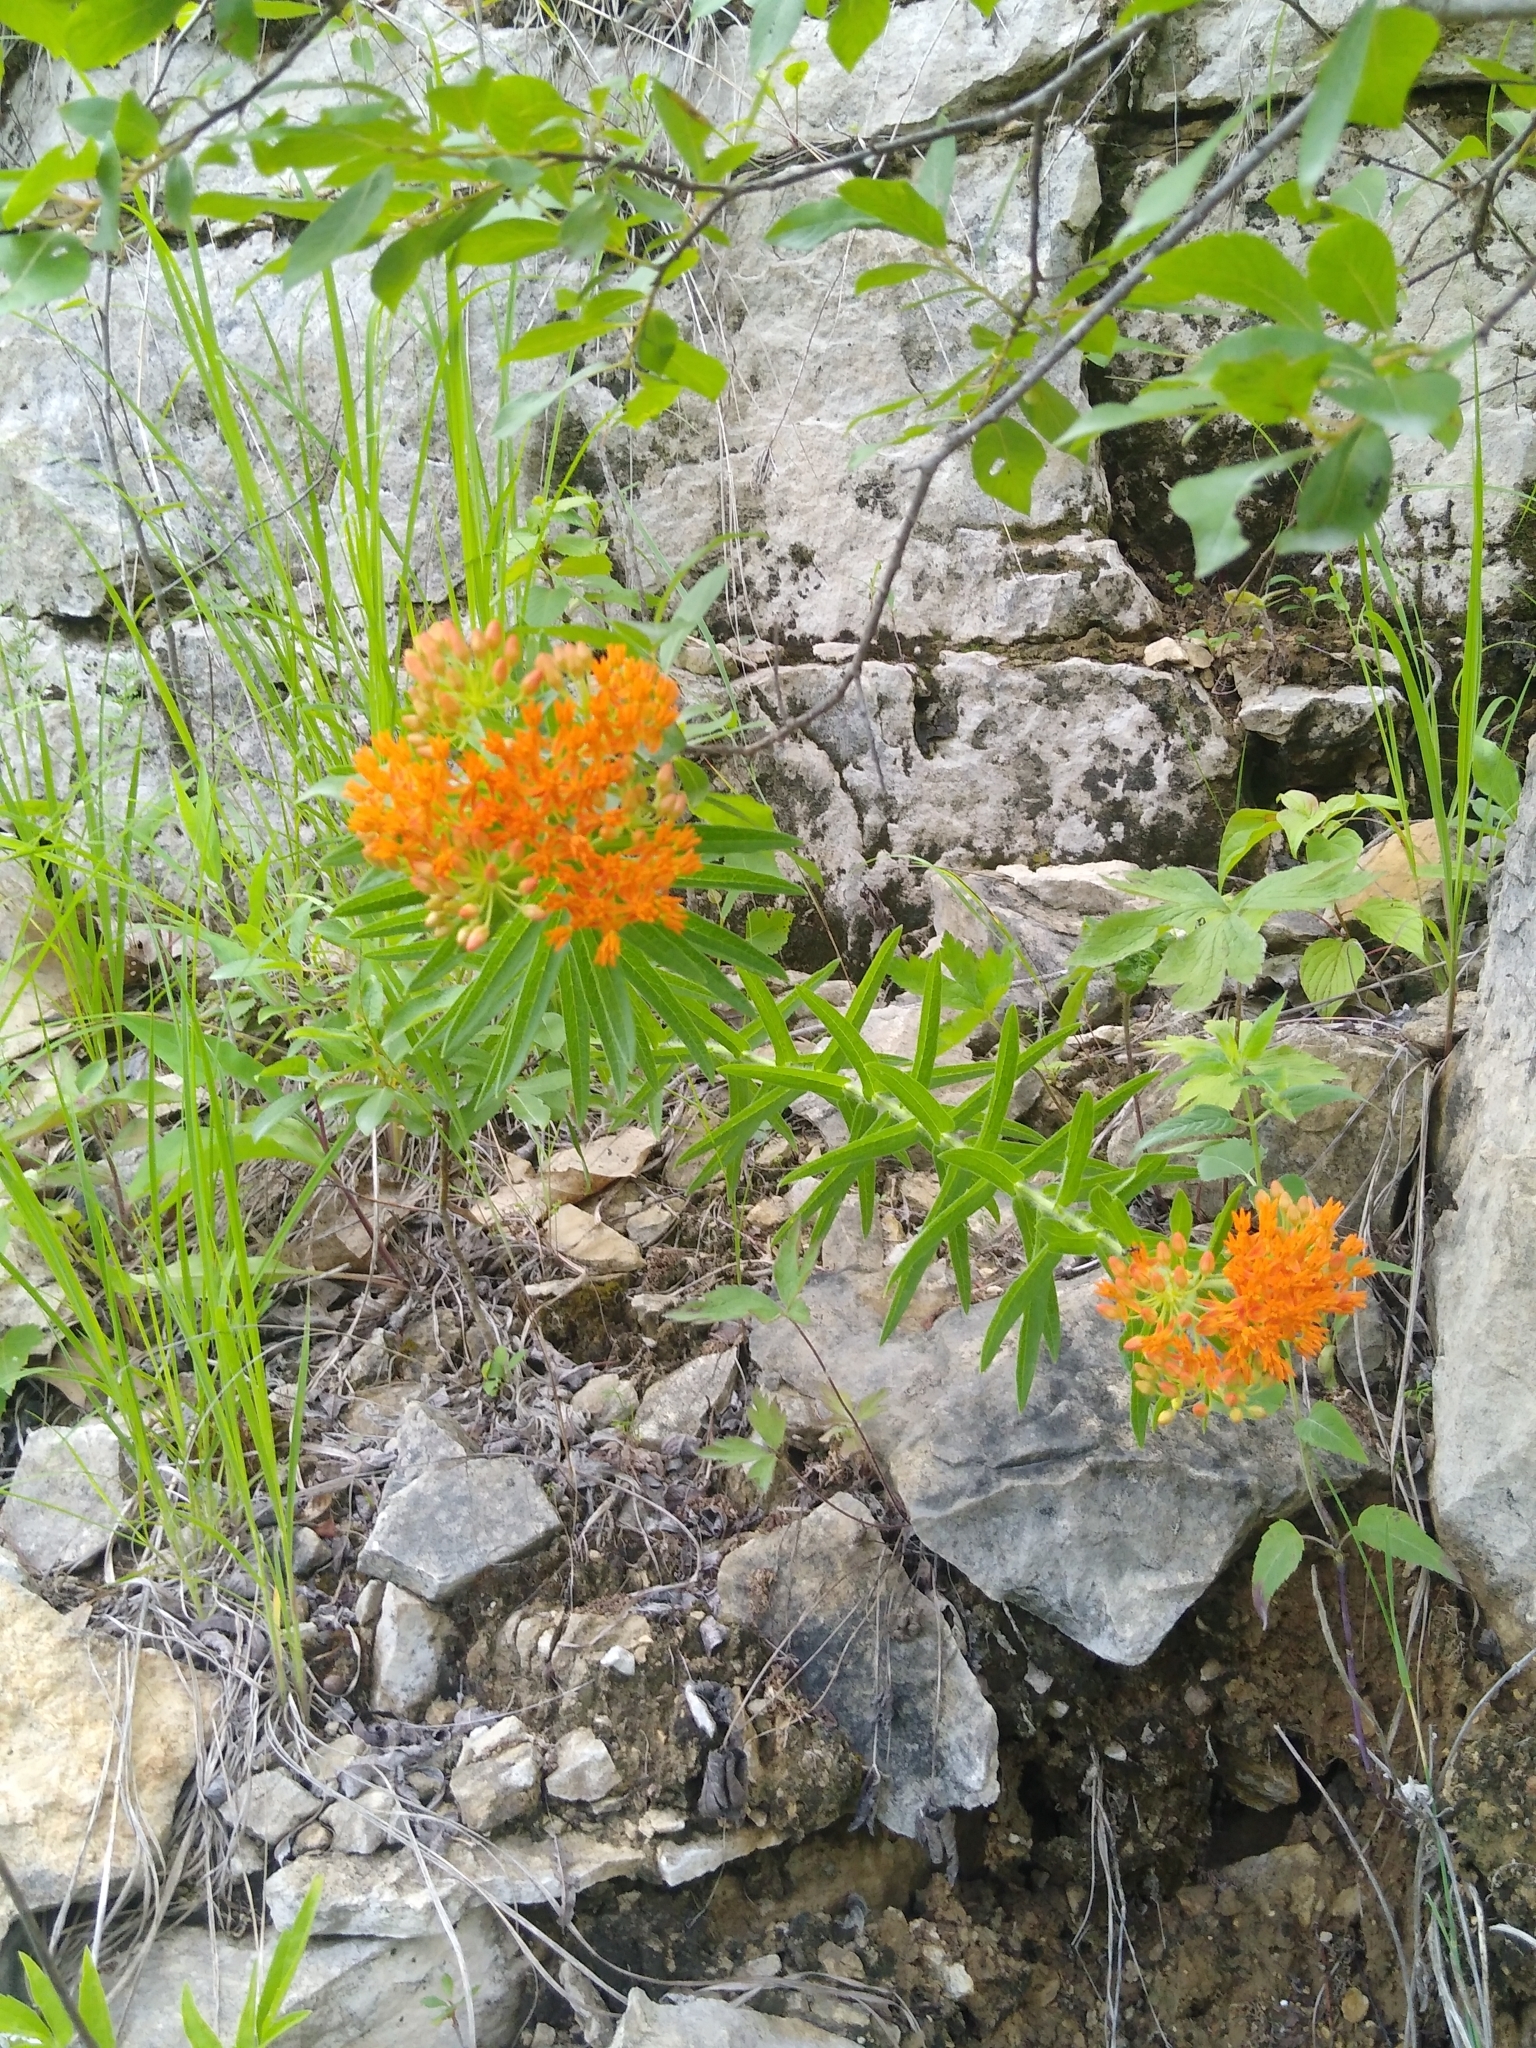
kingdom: Plantae
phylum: Tracheophyta
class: Magnoliopsida
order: Gentianales
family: Apocynaceae
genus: Asclepias
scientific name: Asclepias tuberosa
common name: Butterfly milkweed
